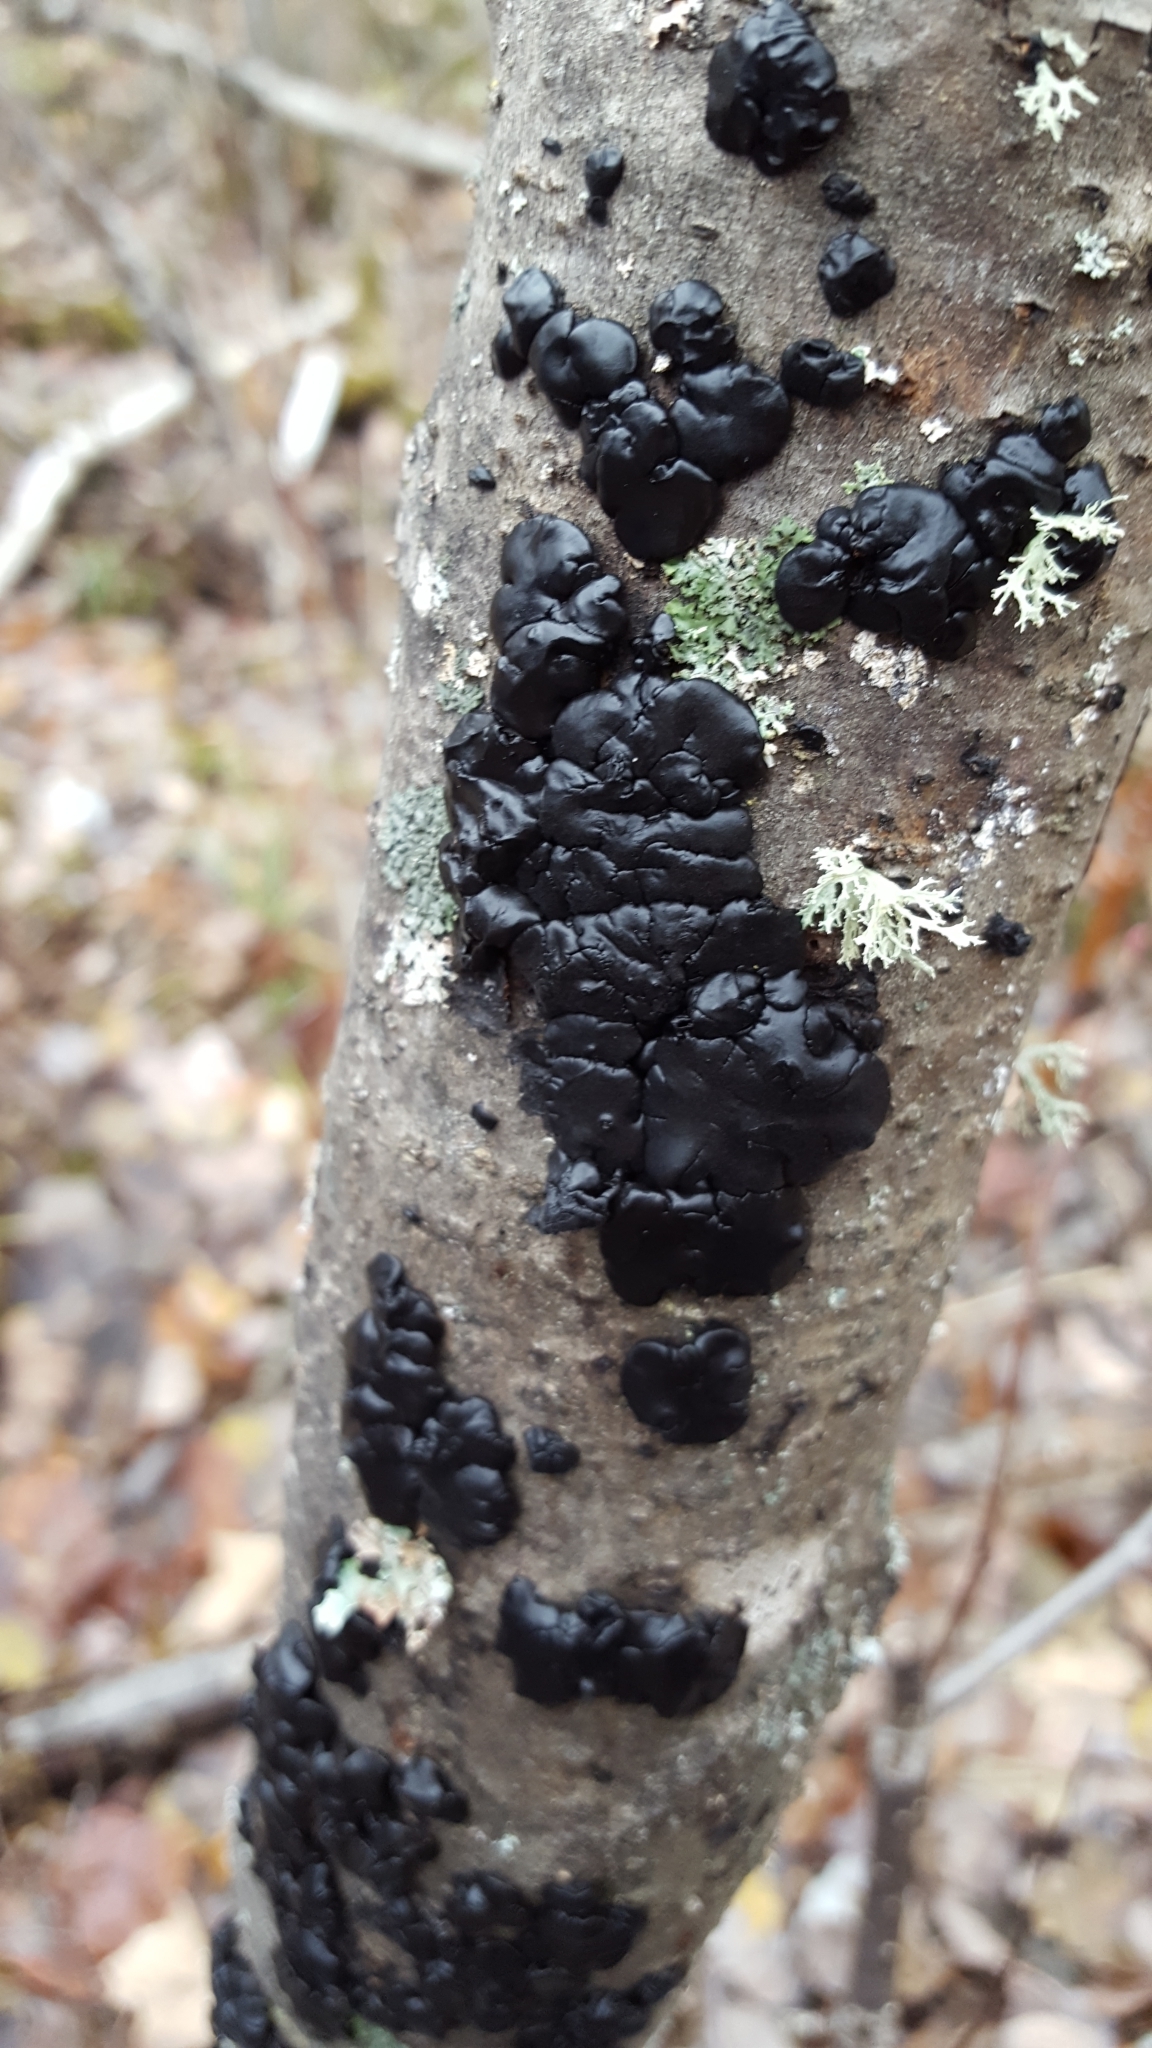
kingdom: Fungi
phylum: Basidiomycota
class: Agaricomycetes
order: Auriculariales
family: Auriculariaceae
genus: Exidia
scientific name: Exidia glandulosa
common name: Witches' butter
